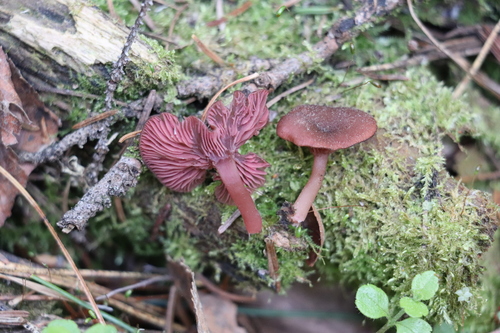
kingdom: Fungi
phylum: Basidiomycota
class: Agaricomycetes
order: Agaricales
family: Hygrophoraceae
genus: Arrhenia
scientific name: Arrhenia discorosea
